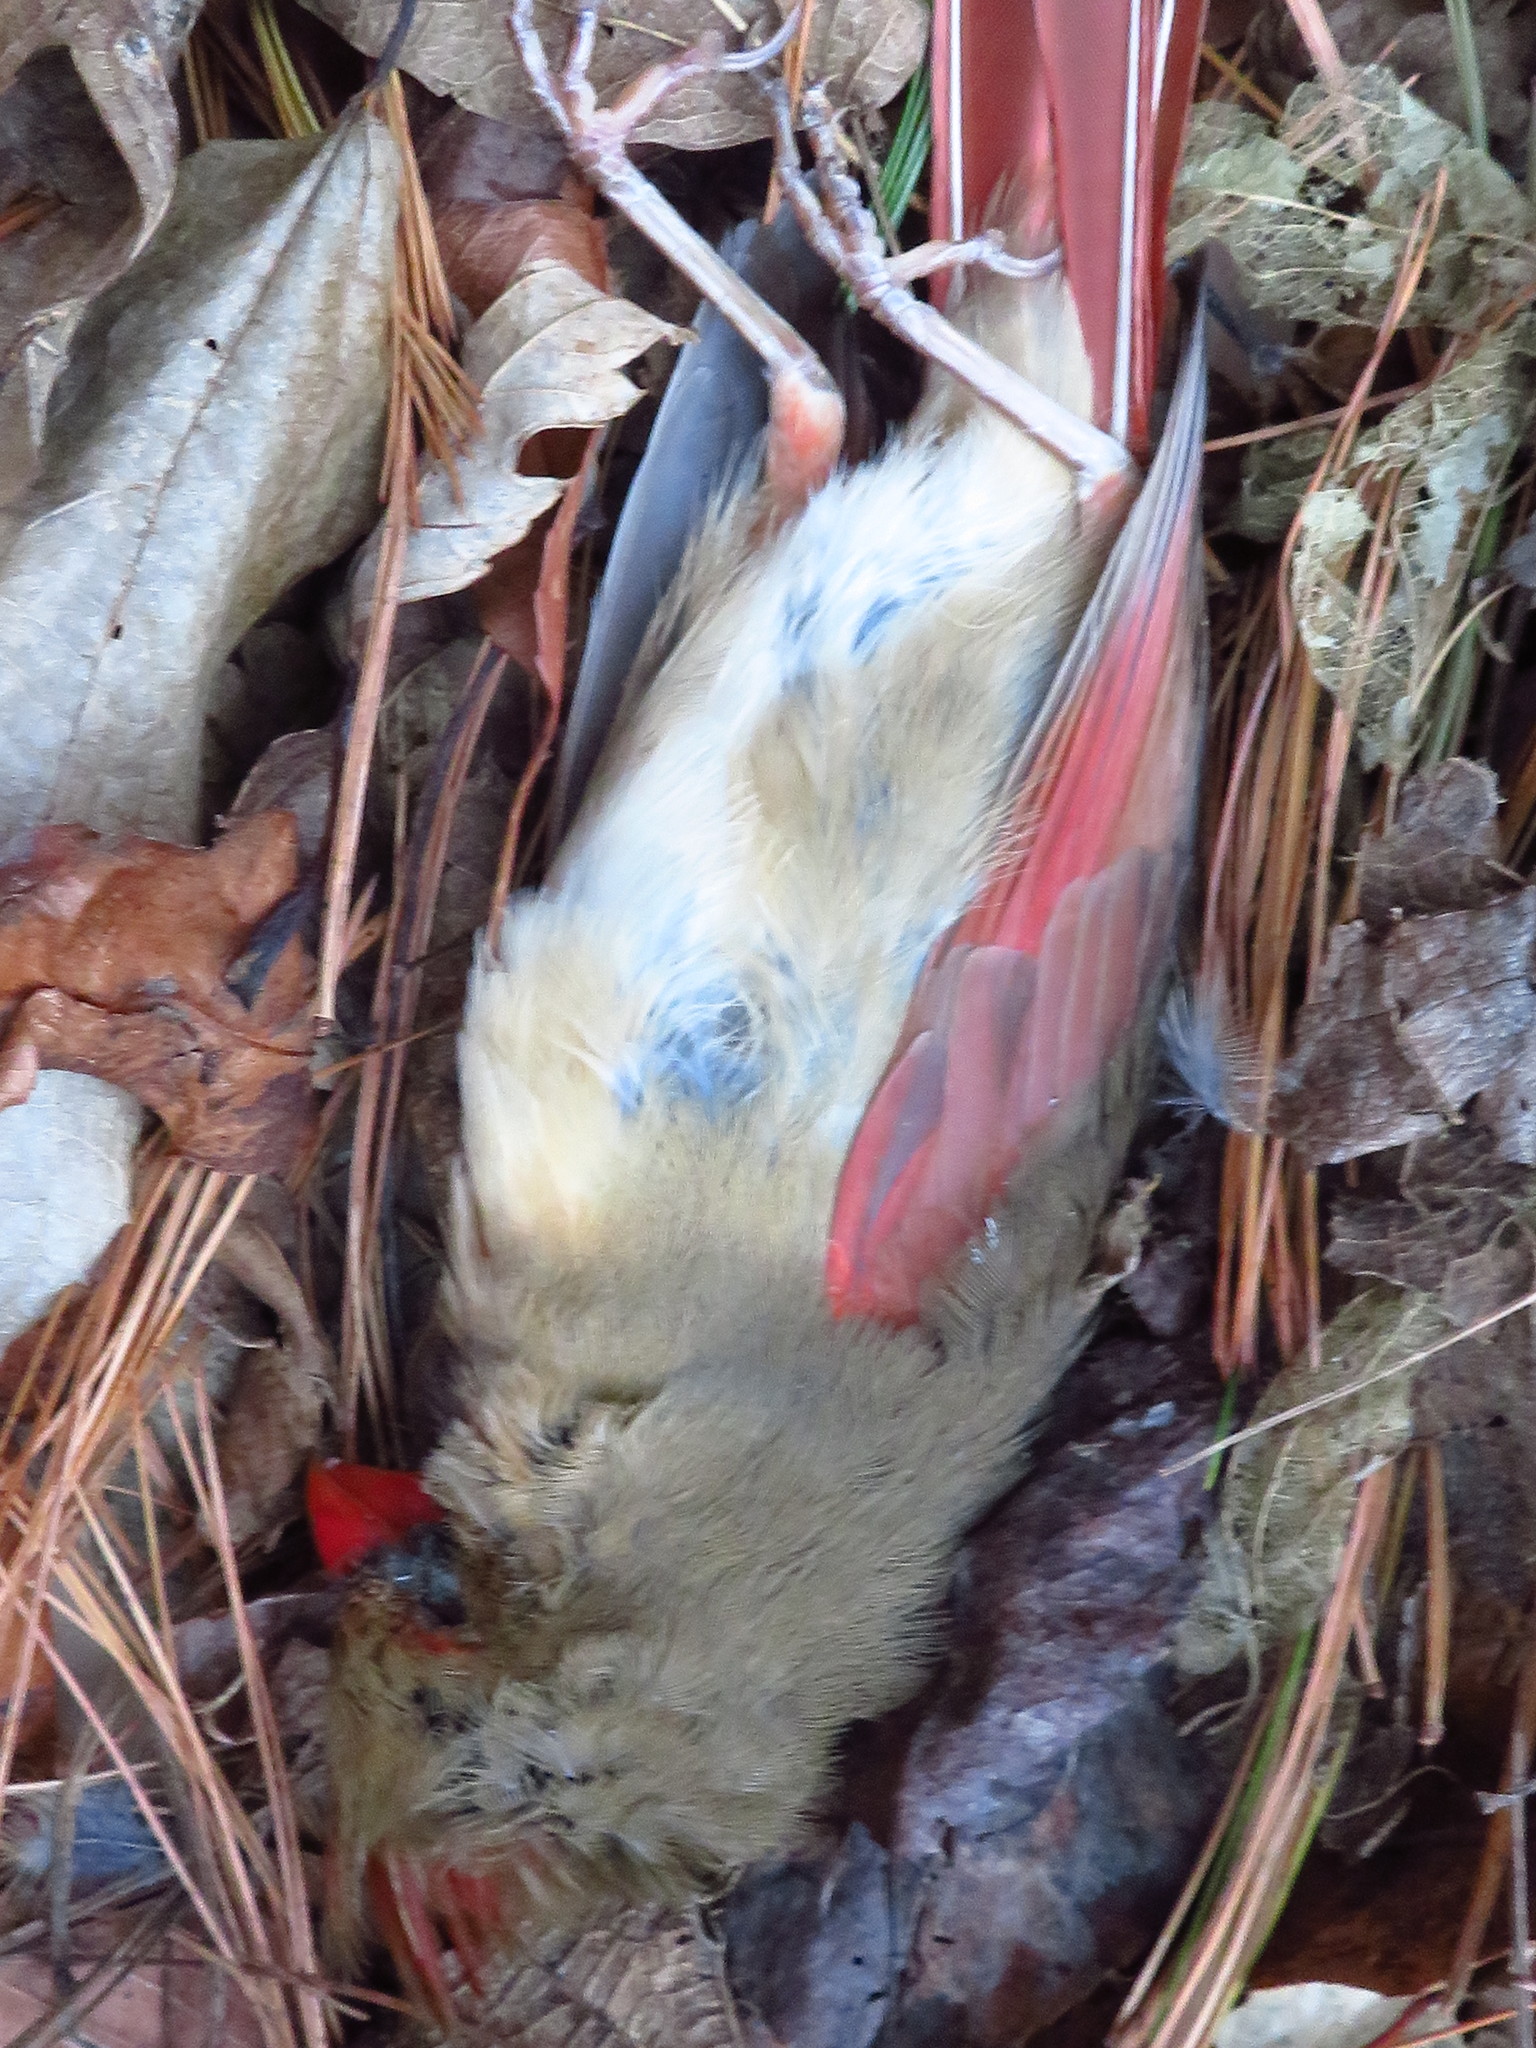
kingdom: Animalia
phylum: Chordata
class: Aves
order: Passeriformes
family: Cardinalidae
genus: Cardinalis
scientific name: Cardinalis cardinalis
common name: Northern cardinal
